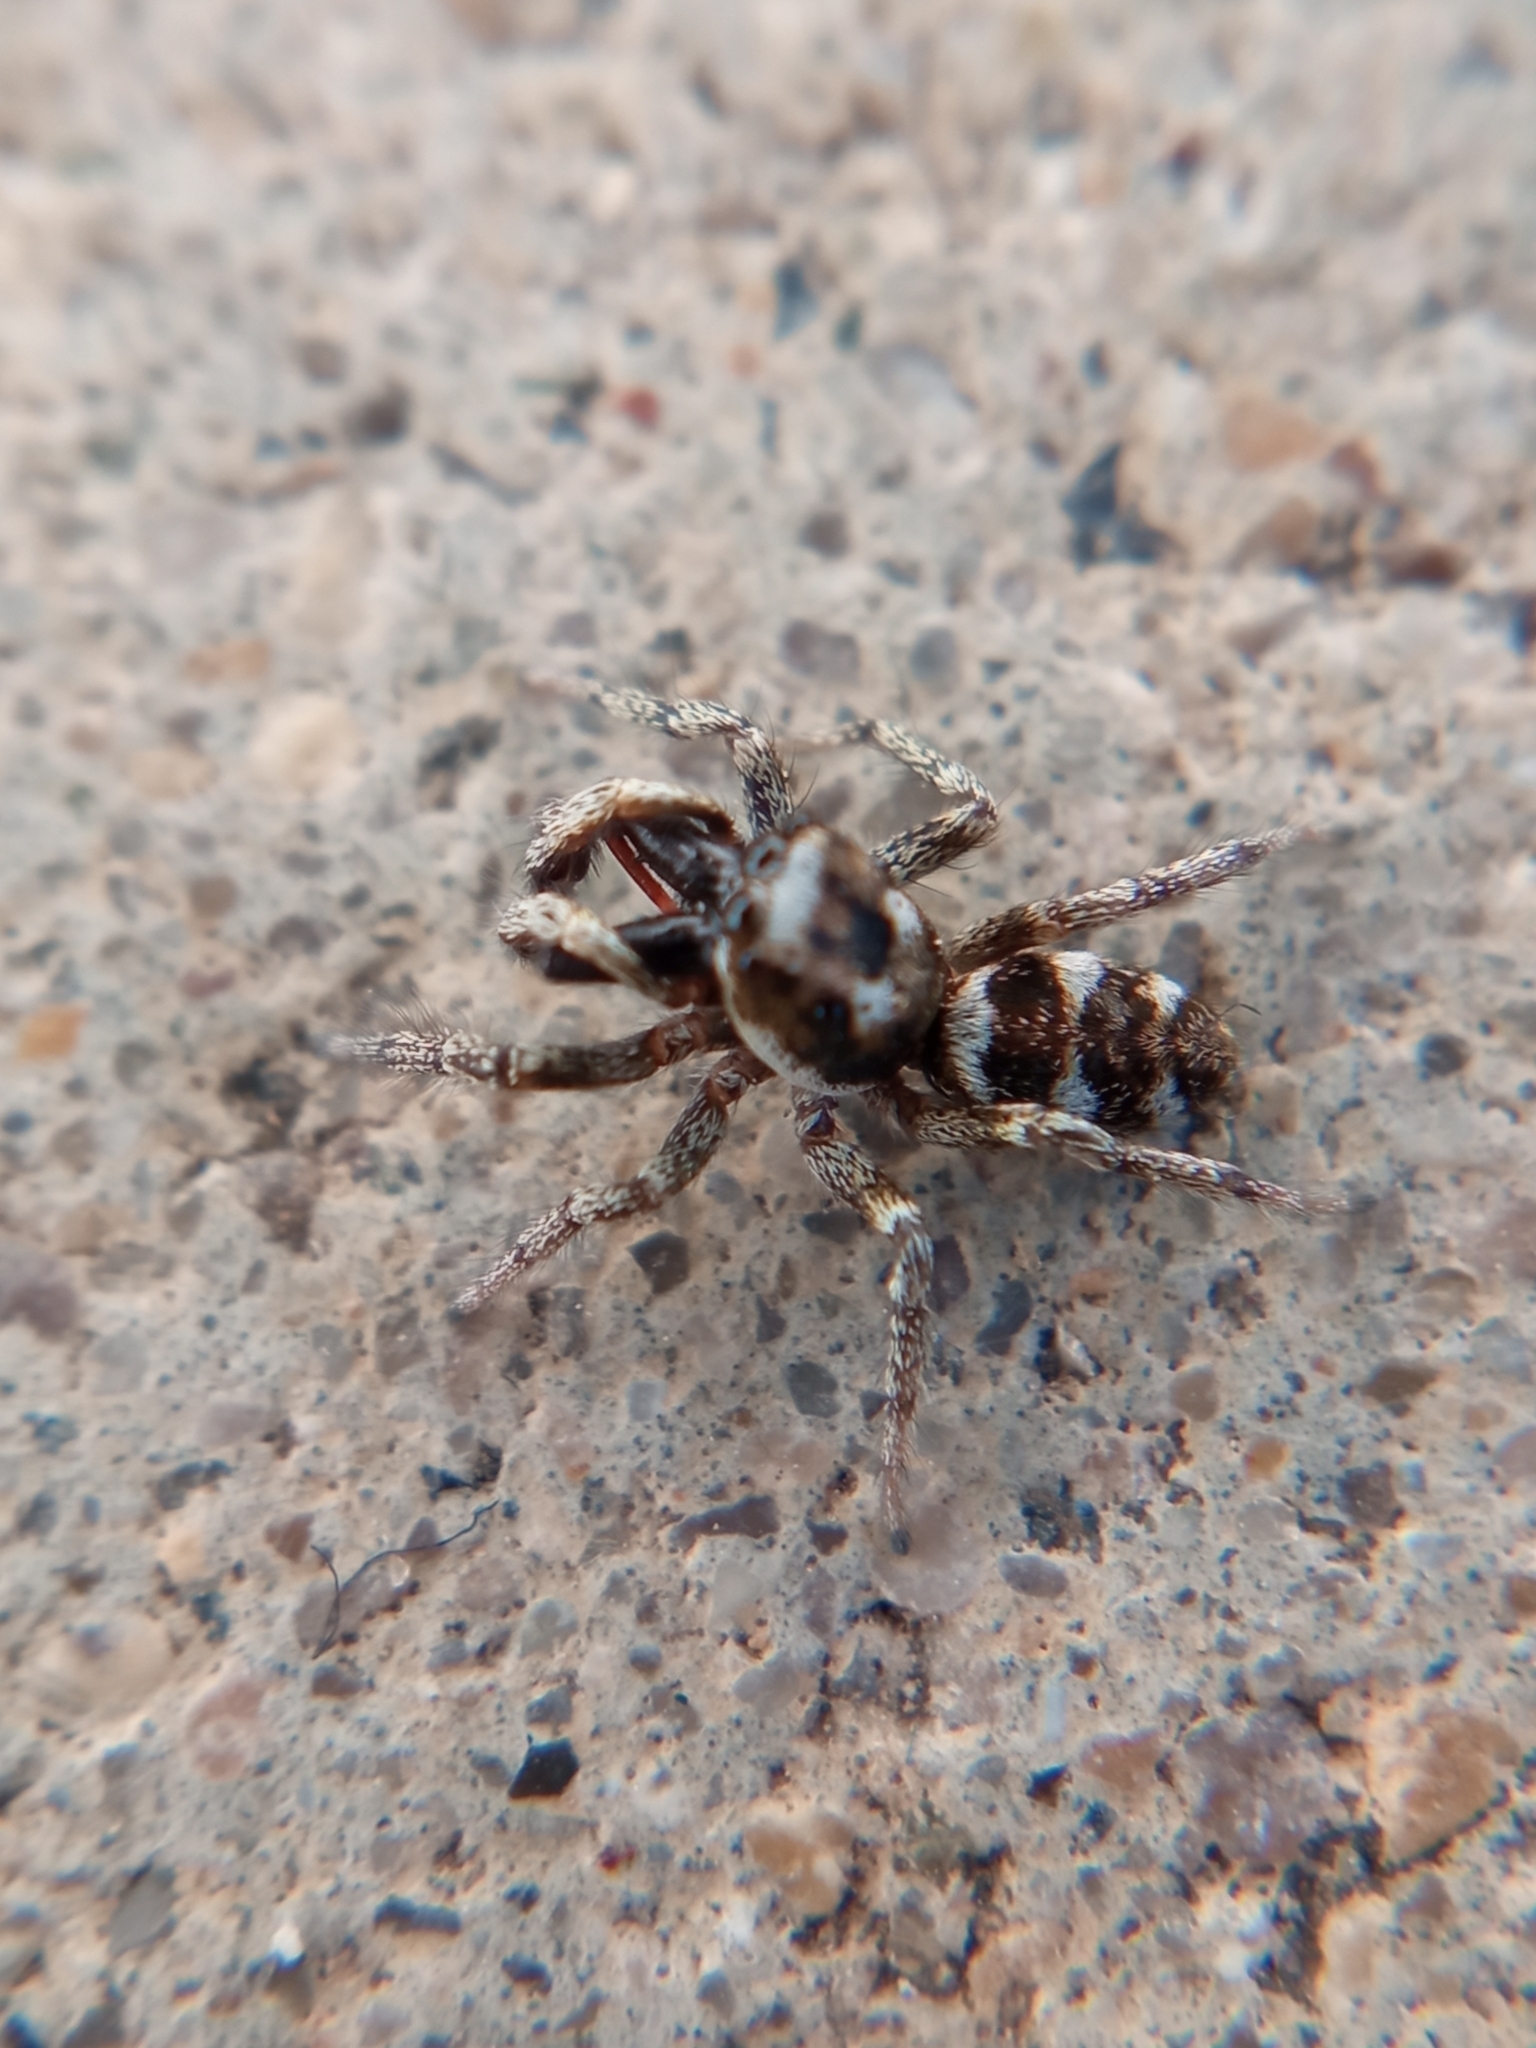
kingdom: Animalia
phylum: Arthropoda
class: Arachnida
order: Araneae
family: Salticidae
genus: Salticus
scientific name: Salticus scenicus
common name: Zebra jumper
